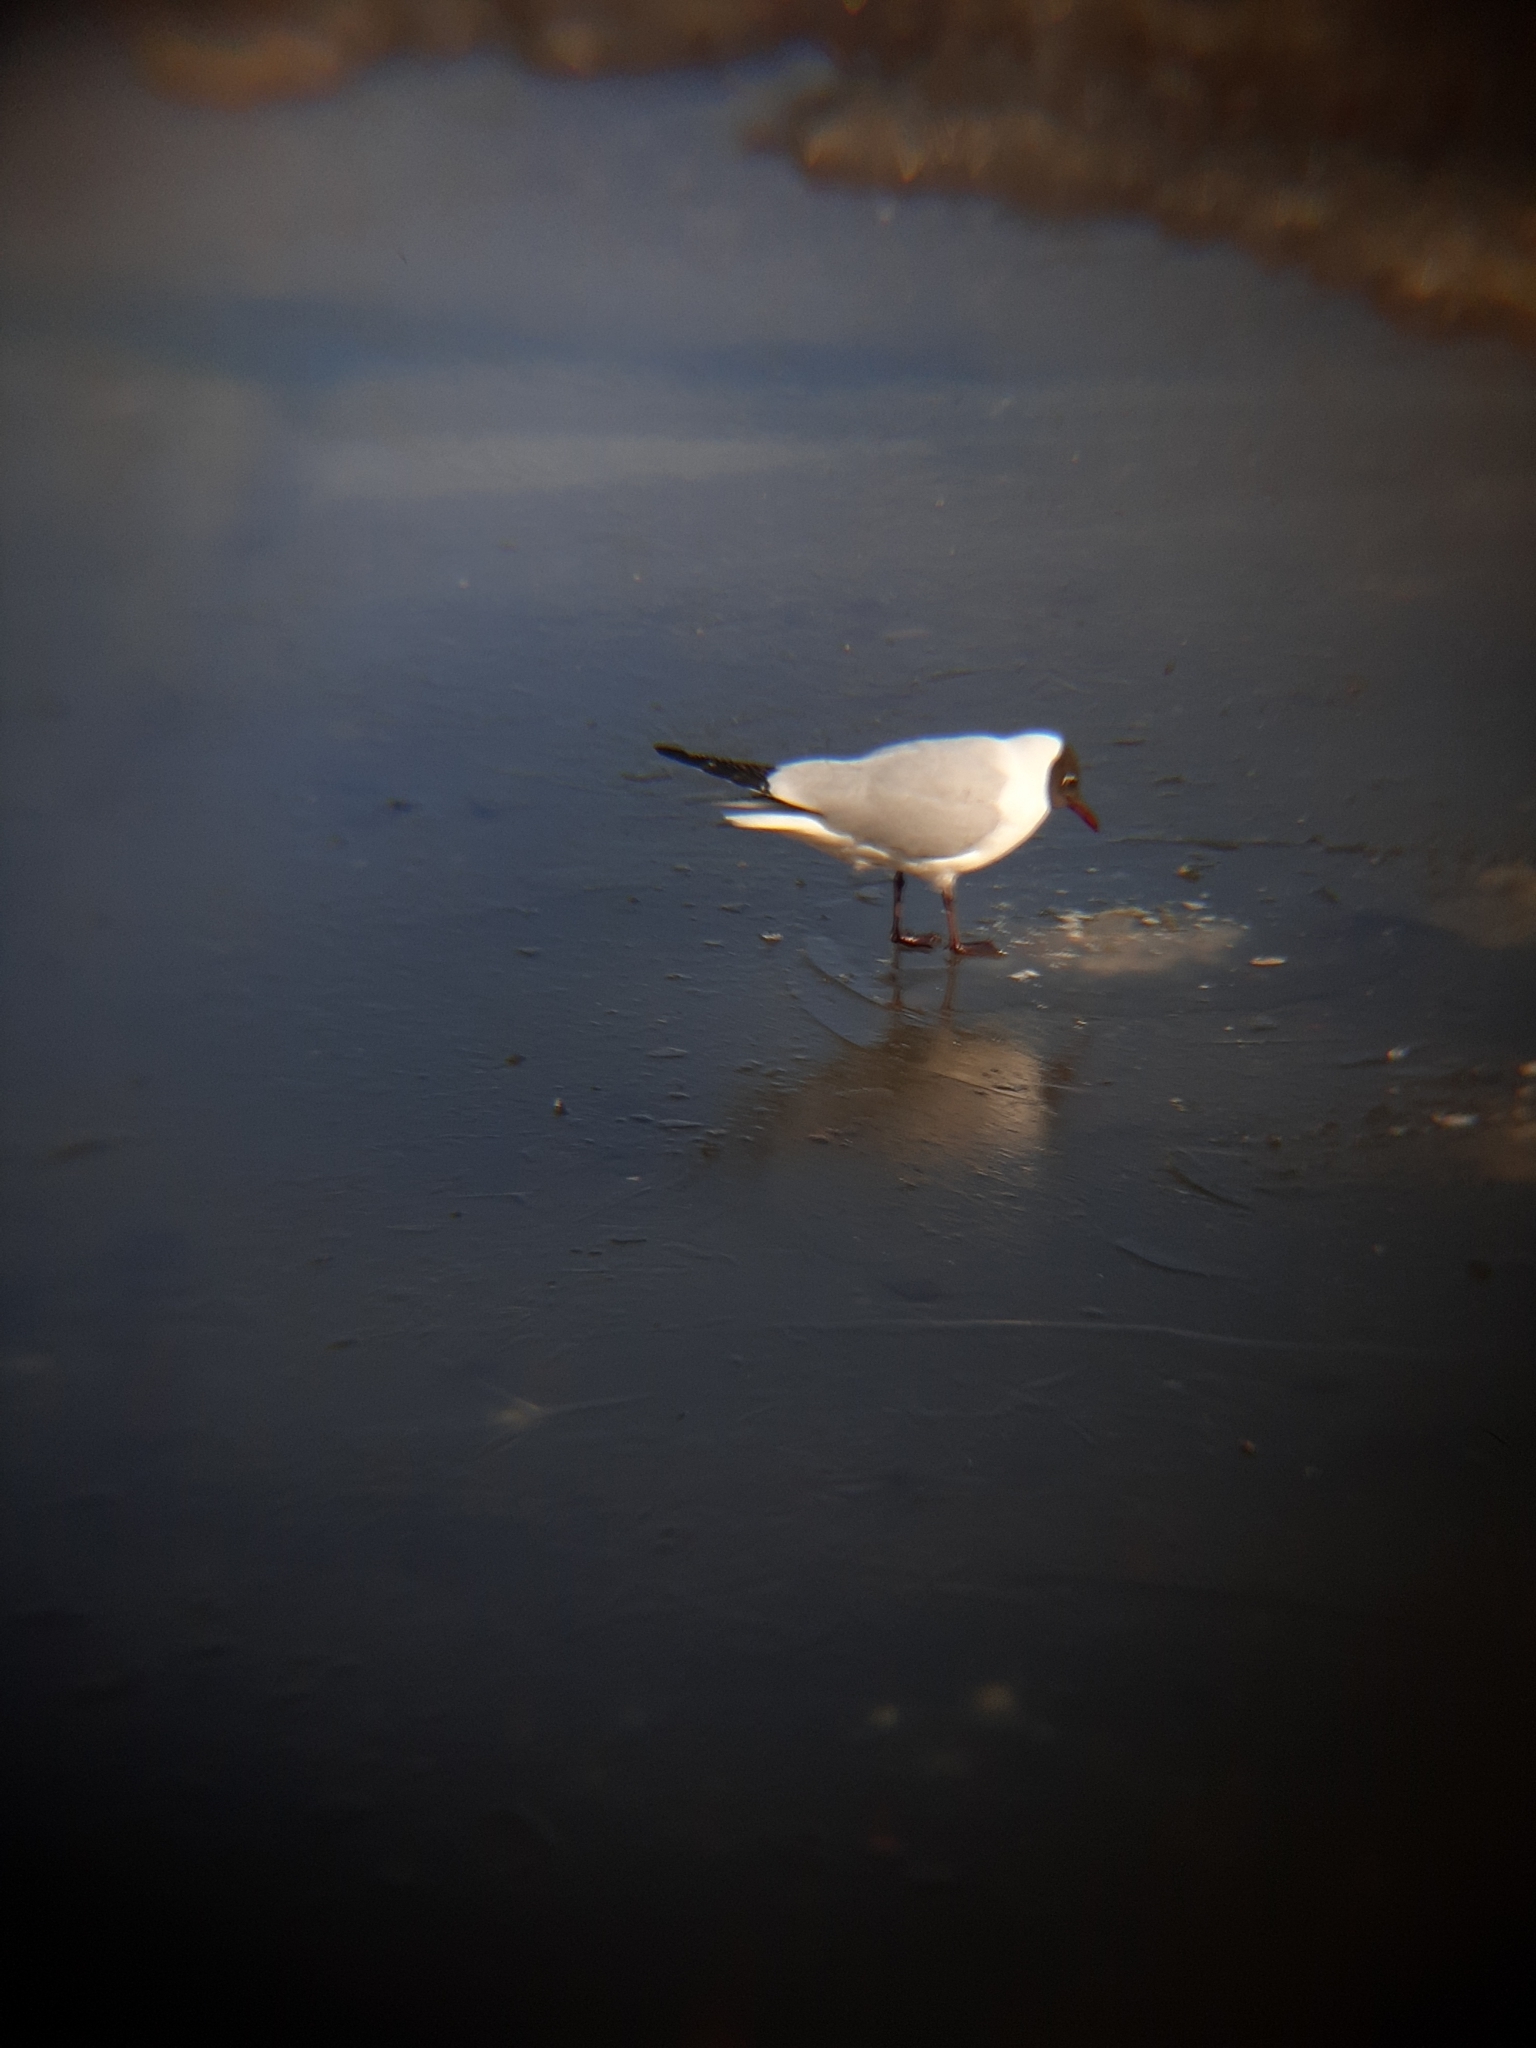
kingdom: Animalia
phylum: Chordata
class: Aves
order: Charadriiformes
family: Laridae
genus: Chroicocephalus
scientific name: Chroicocephalus ridibundus
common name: Black-headed gull
